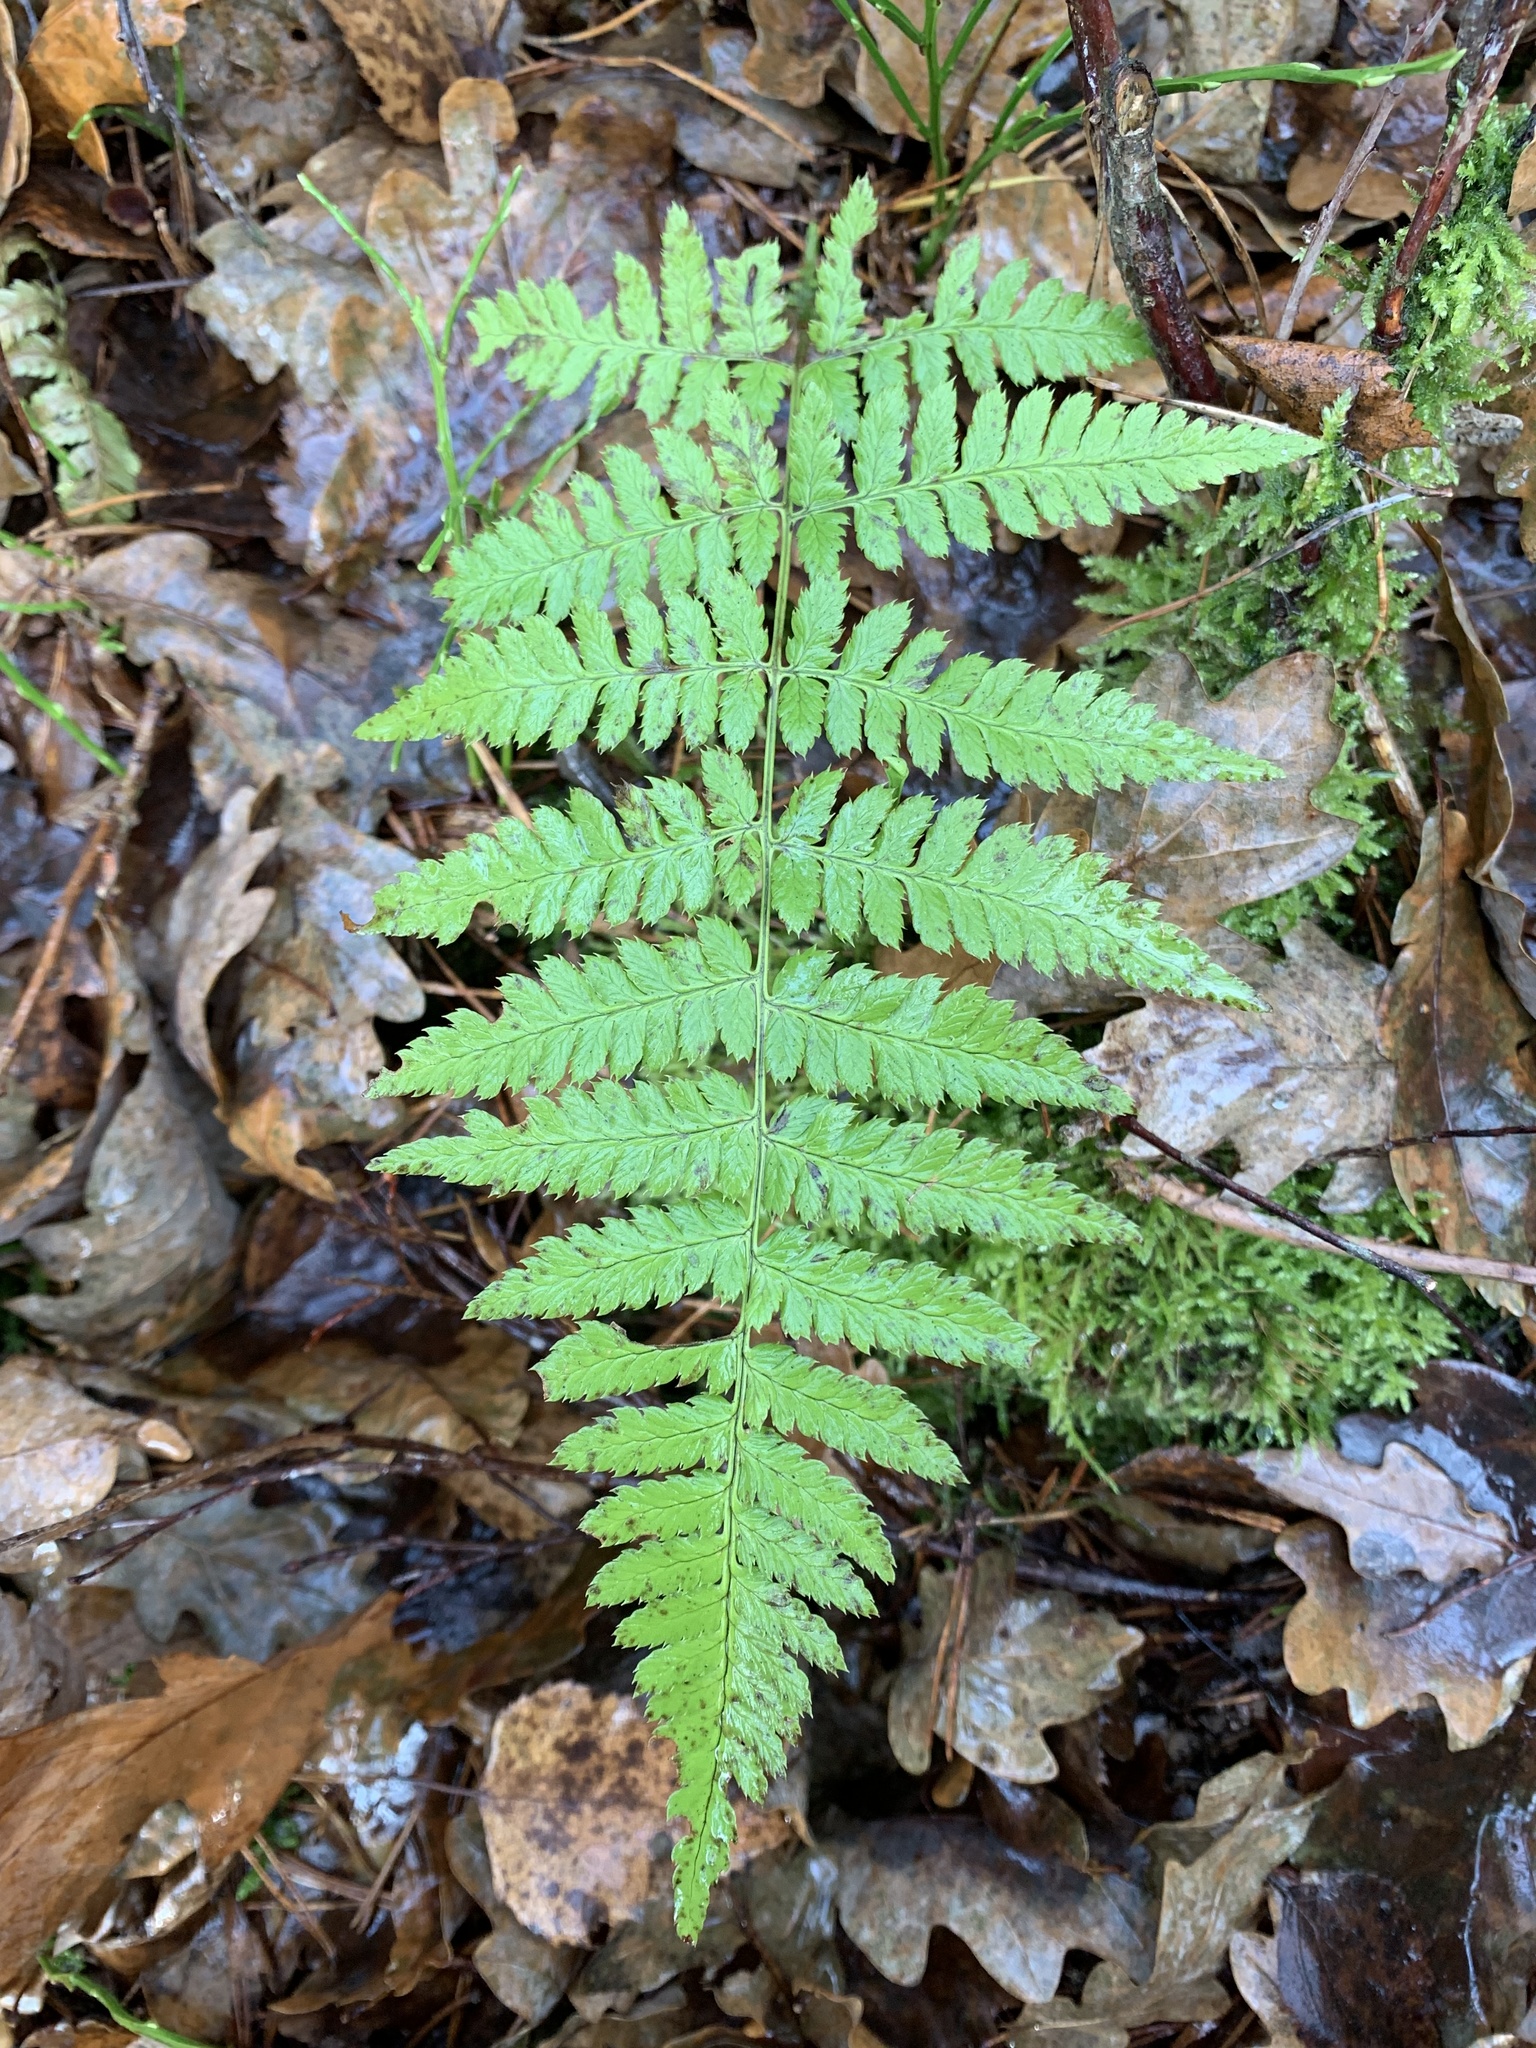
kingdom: Plantae
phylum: Tracheophyta
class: Polypodiopsida
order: Polypodiales
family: Dryopteridaceae
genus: Dryopteris
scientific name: Dryopteris carthusiana
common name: Narrow buckler-fern
